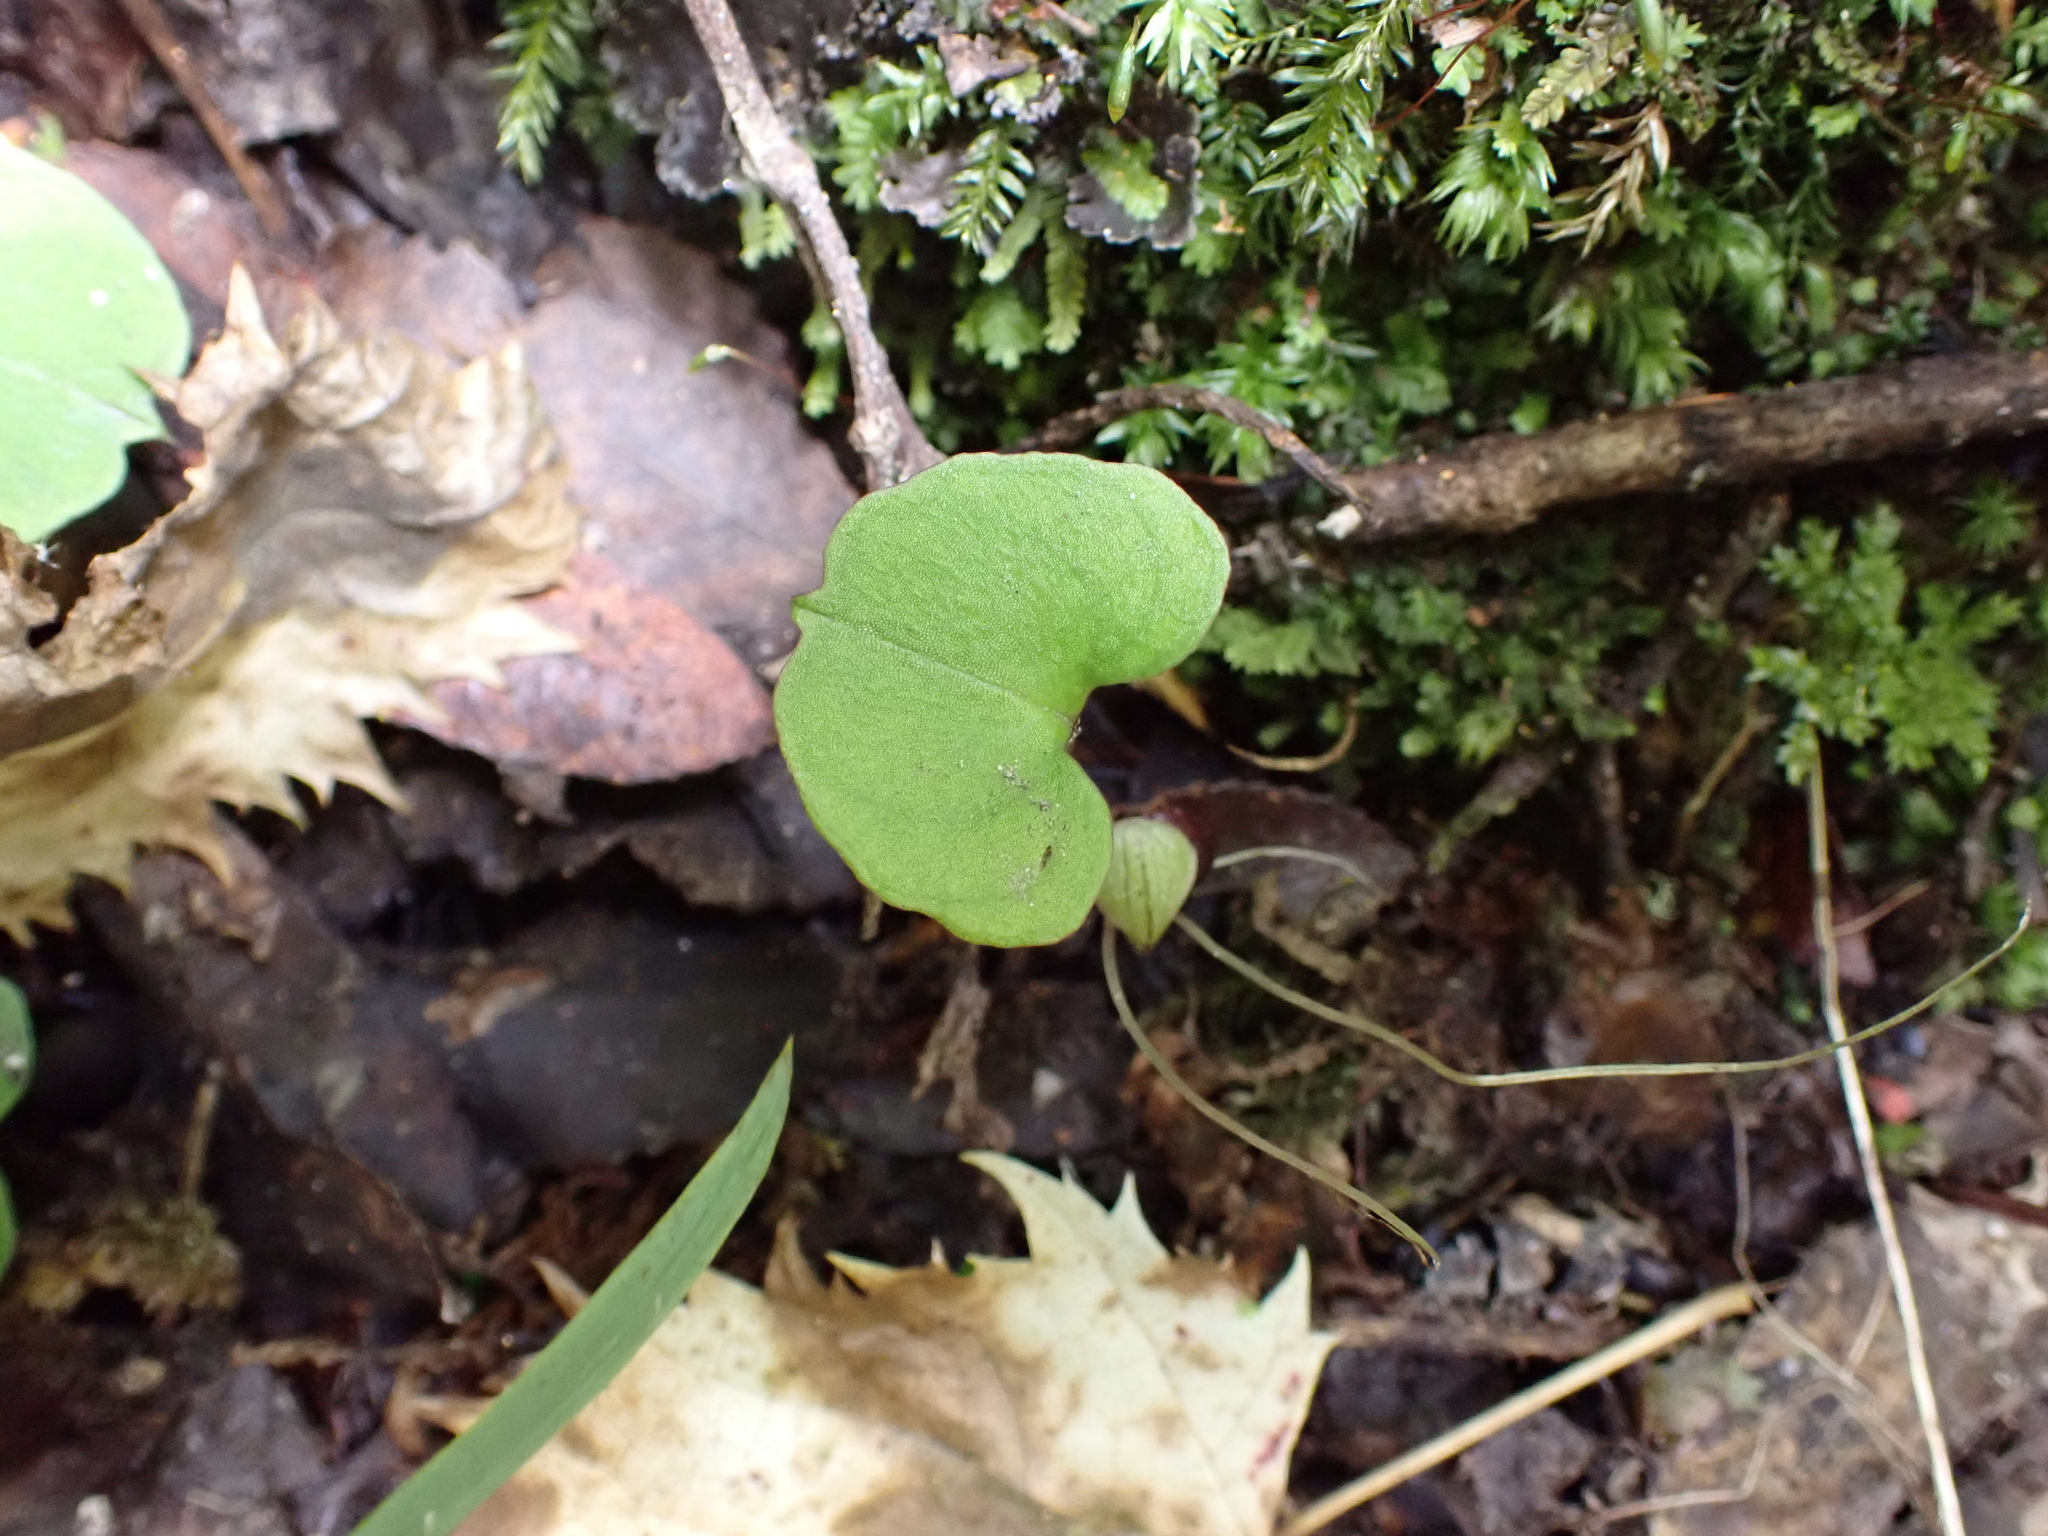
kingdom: Plantae
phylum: Tracheophyta
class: Liliopsida
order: Asparagales
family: Orchidaceae
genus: Corybas
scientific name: Corybas trilobus
